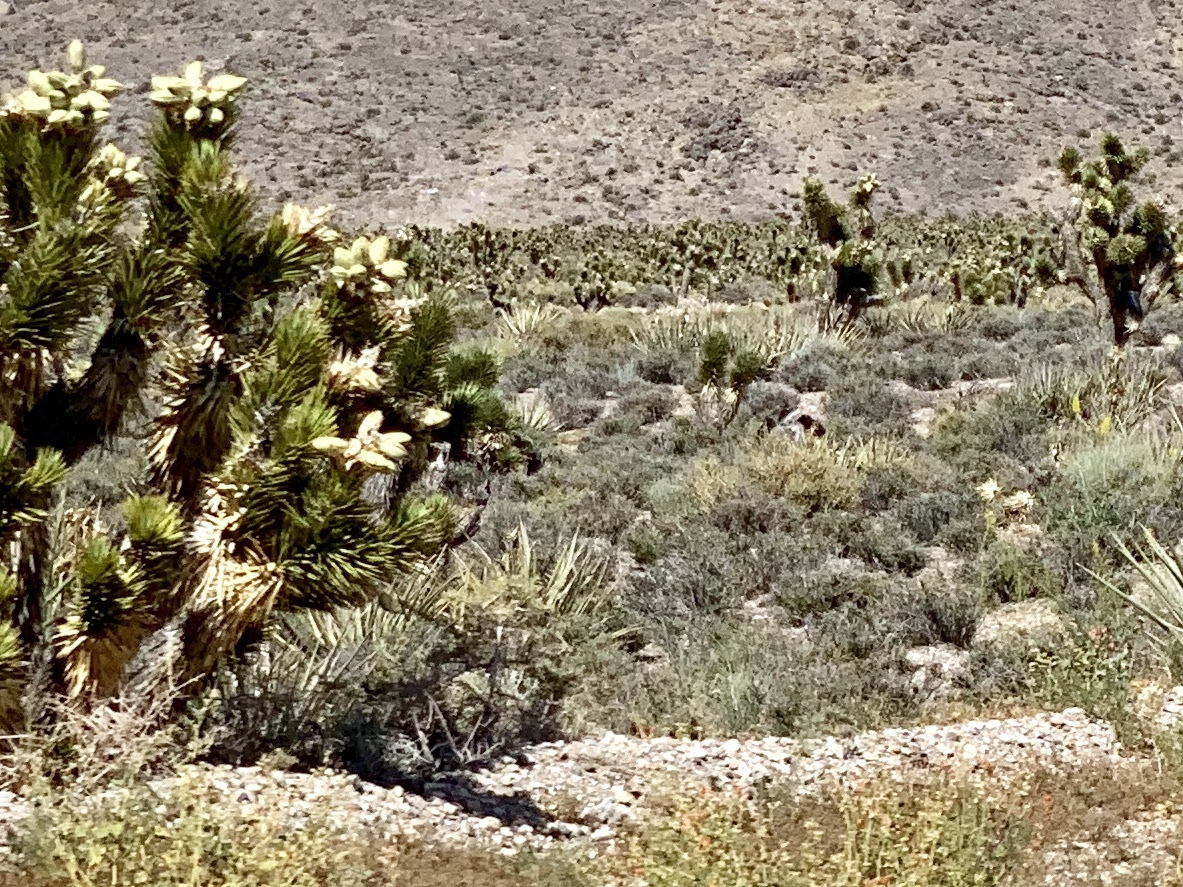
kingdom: Plantae
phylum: Tracheophyta
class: Liliopsida
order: Asparagales
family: Asparagaceae
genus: Yucca
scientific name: Yucca brevifolia
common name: Joshua tree
